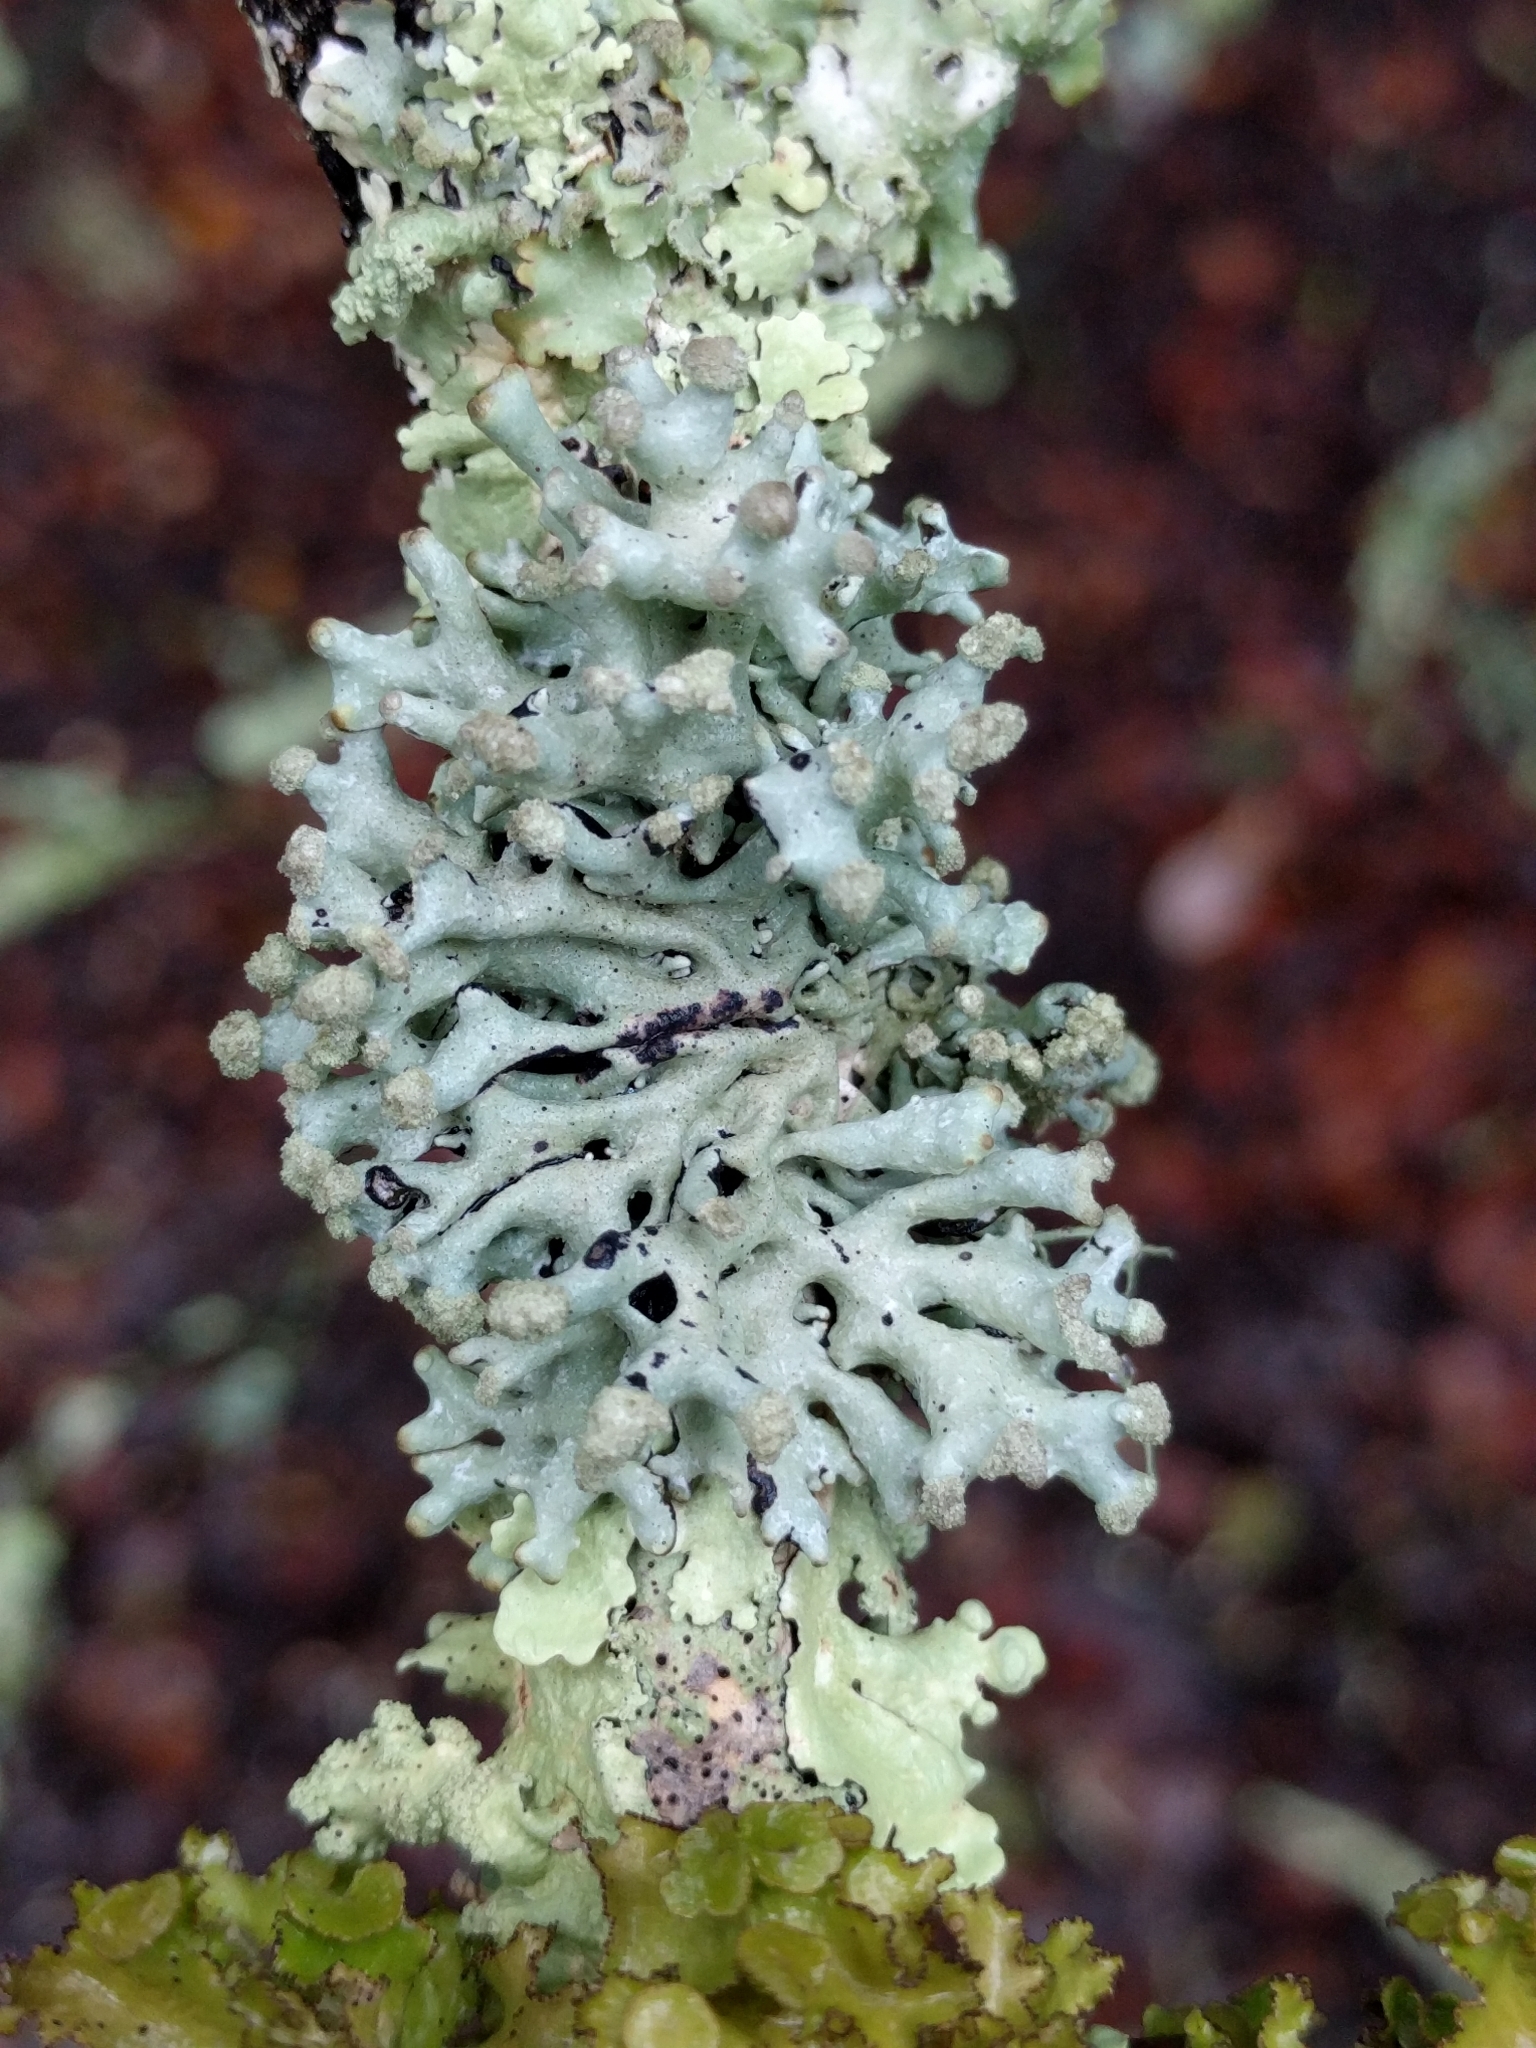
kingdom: Fungi
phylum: Ascomycota
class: Lecanoromycetes
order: Lecanorales
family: Parmeliaceae
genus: Hypogymnia
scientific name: Hypogymnia tubulosa
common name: Powder-headed tube lichen
